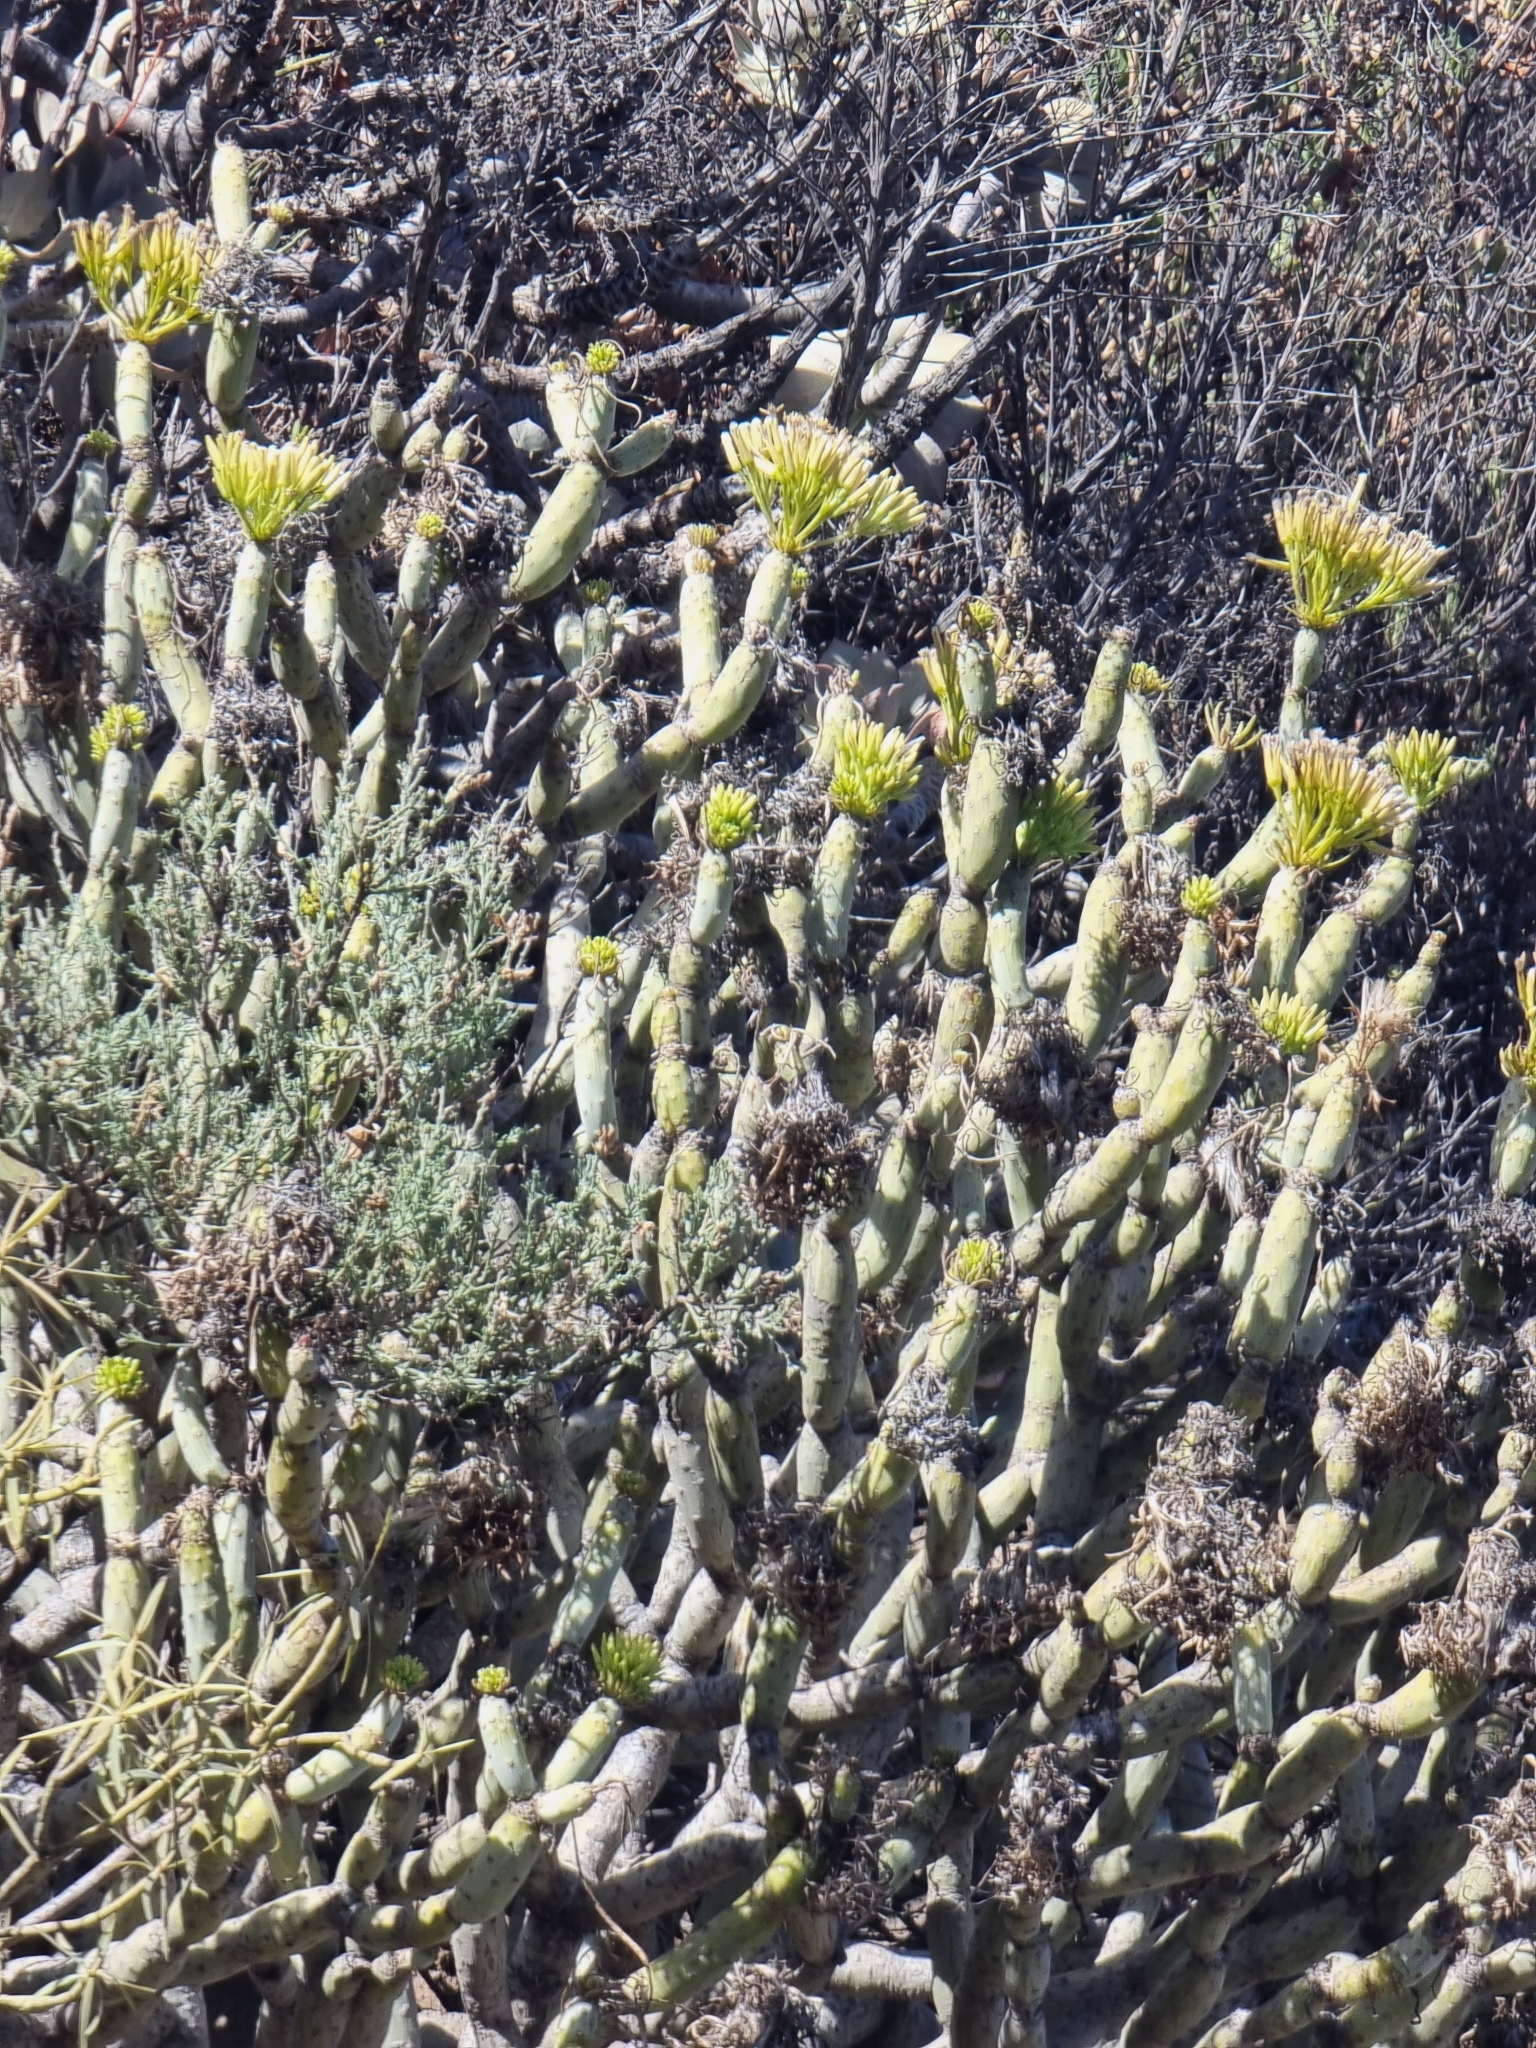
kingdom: Plantae
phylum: Tracheophyta
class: Magnoliopsida
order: Asterales
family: Asteraceae
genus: Kleinia
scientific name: Kleinia neriifolia
